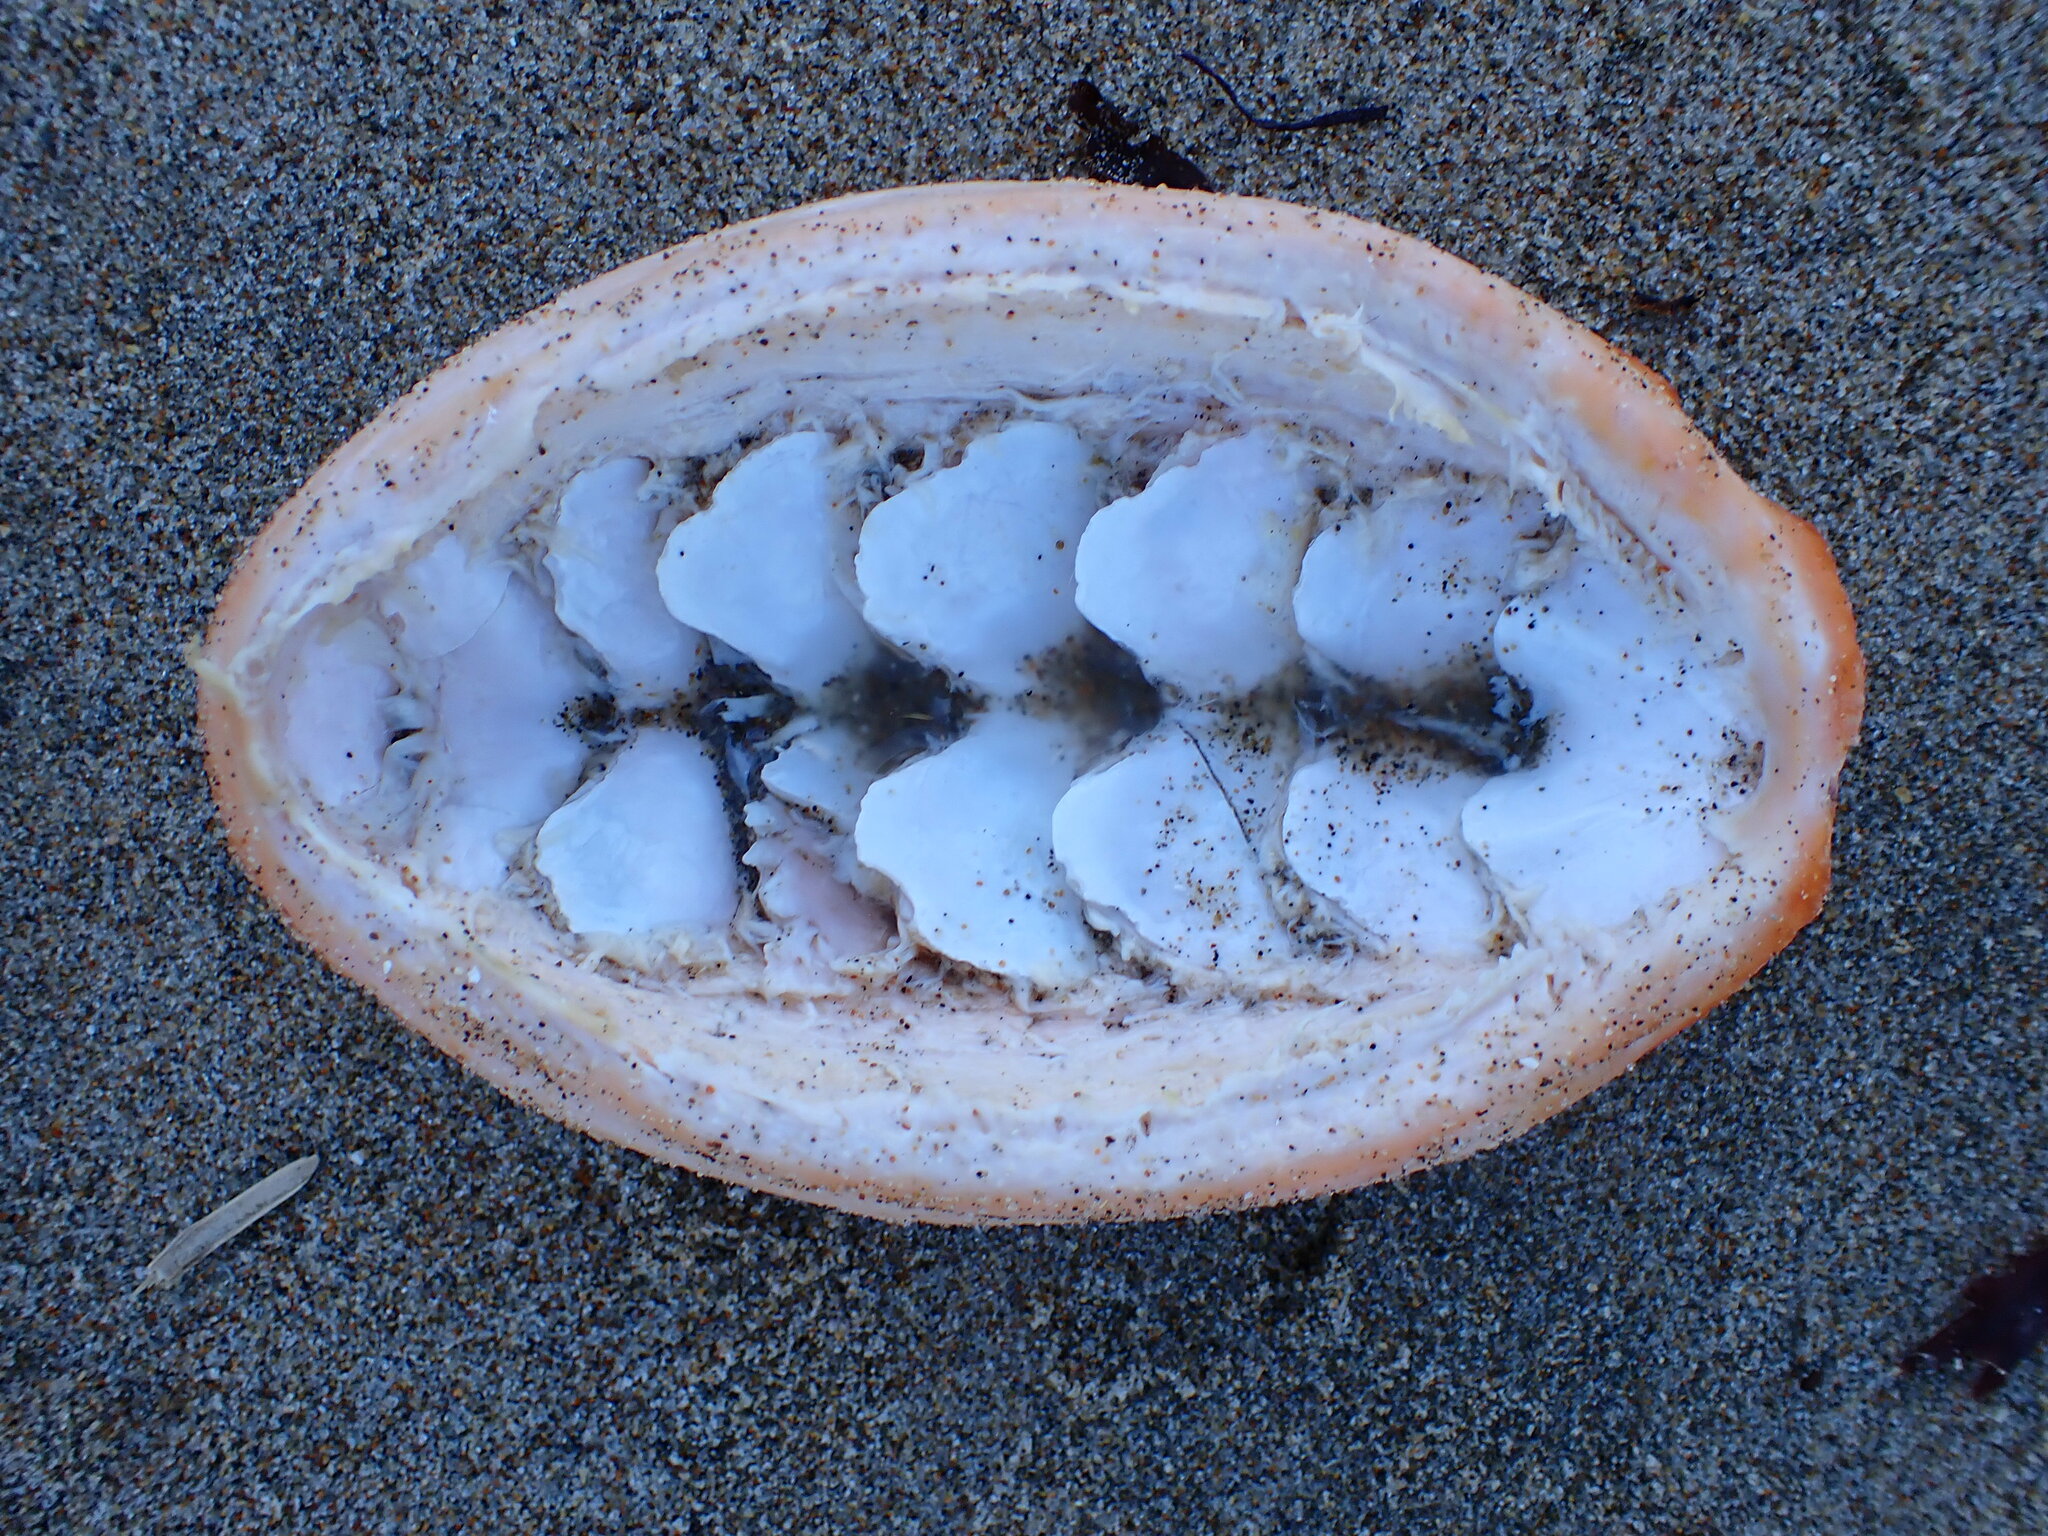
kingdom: Animalia
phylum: Mollusca
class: Polyplacophora
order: Chitonida
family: Acanthochitonidae
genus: Cryptochiton
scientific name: Cryptochiton stelleri
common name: Giant pacific chiton
